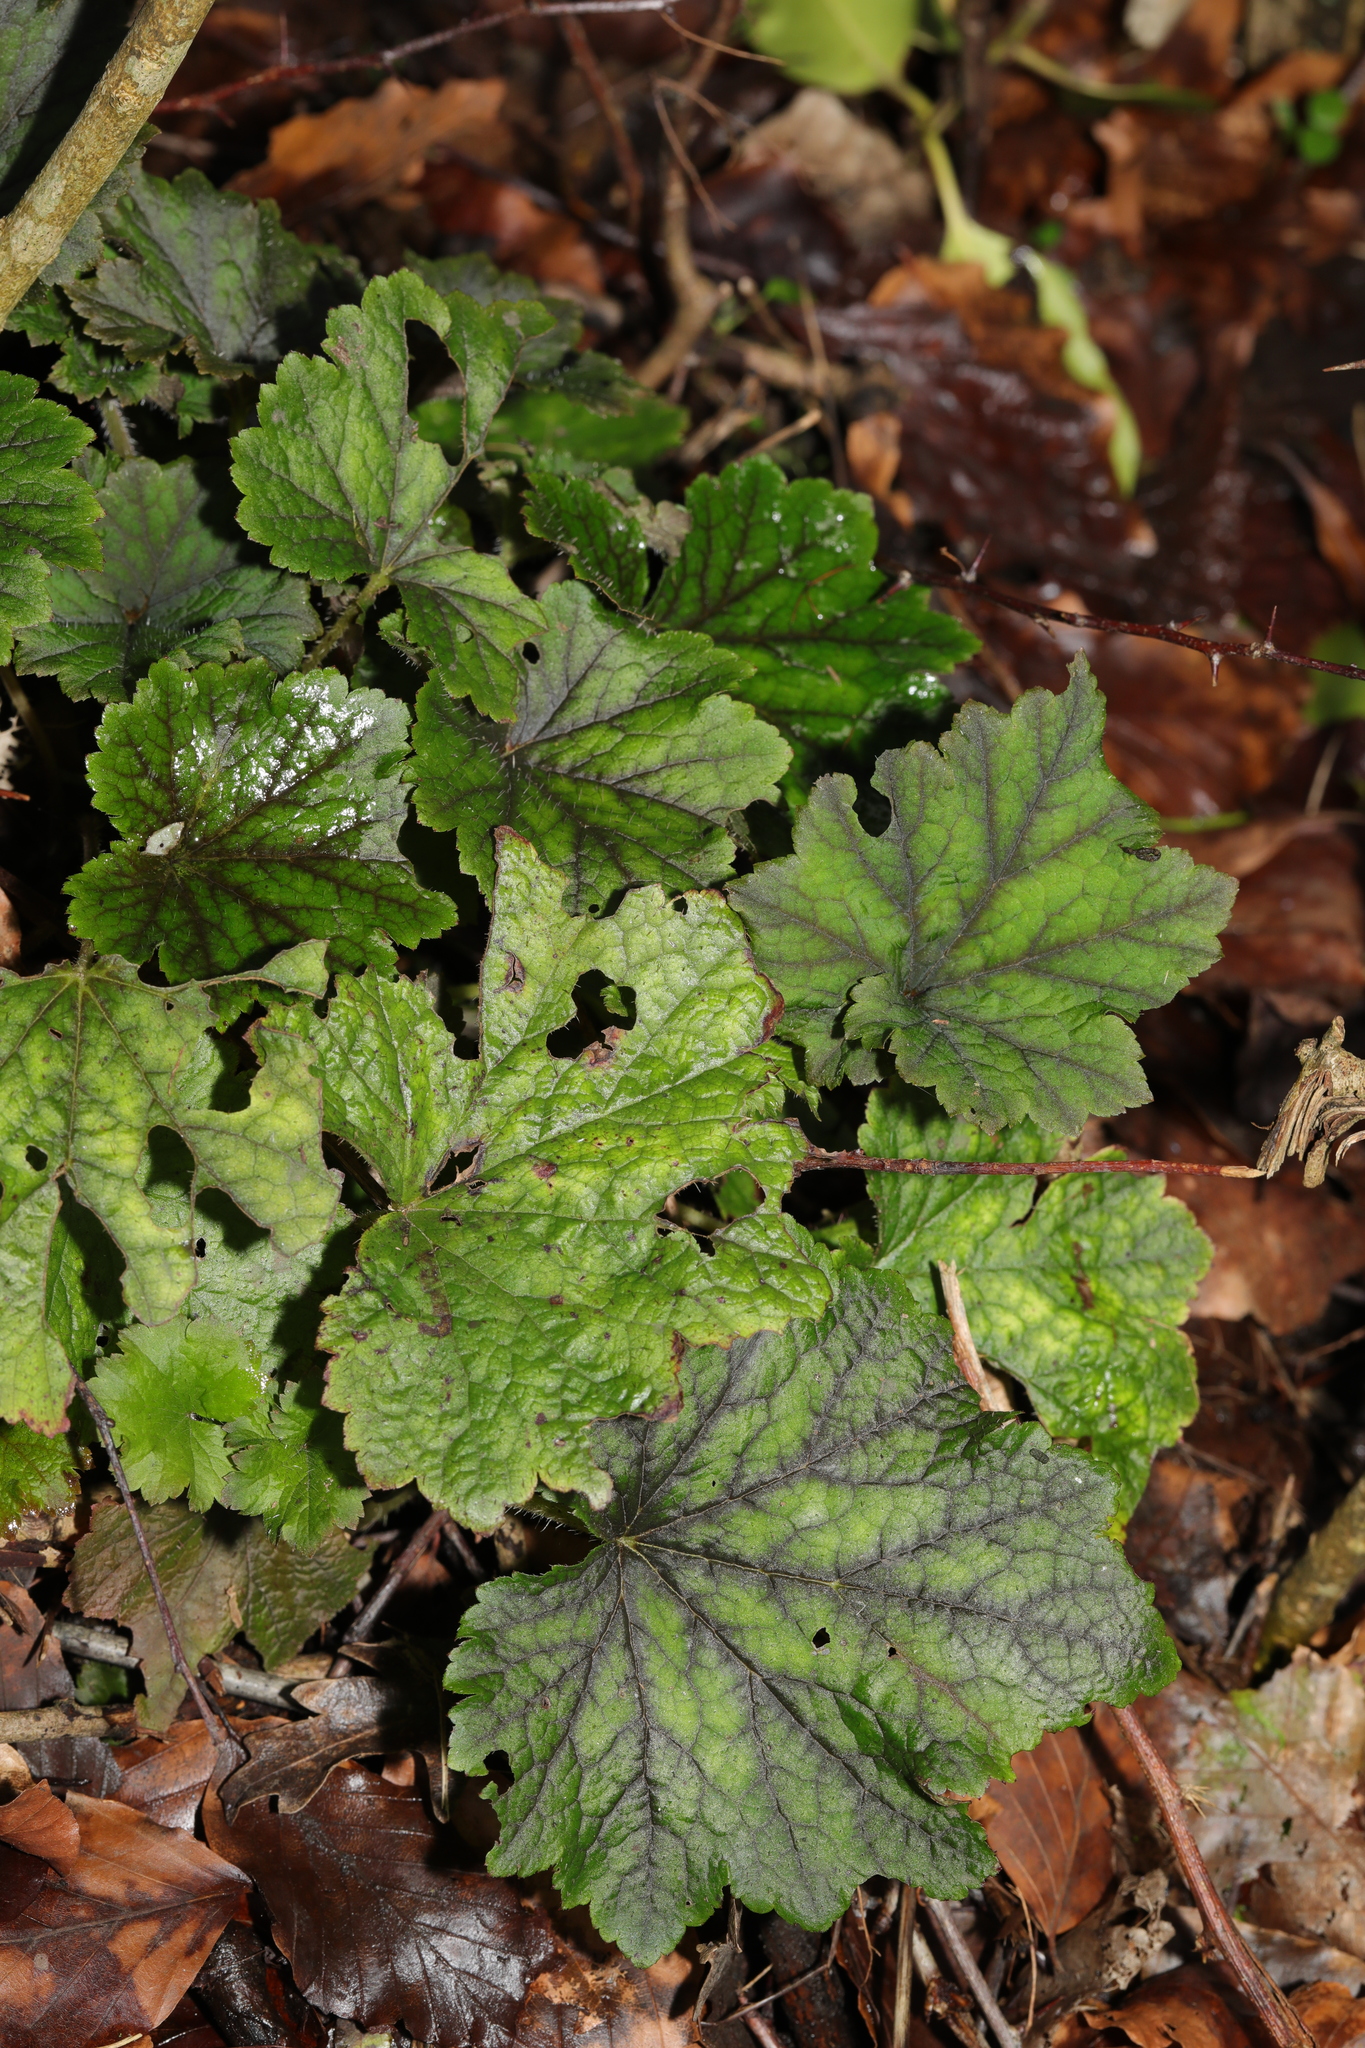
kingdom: Plantae
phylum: Tracheophyta
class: Magnoliopsida
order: Saxifragales
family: Saxifragaceae
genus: Tellima
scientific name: Tellima grandiflora
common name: Fringecups
